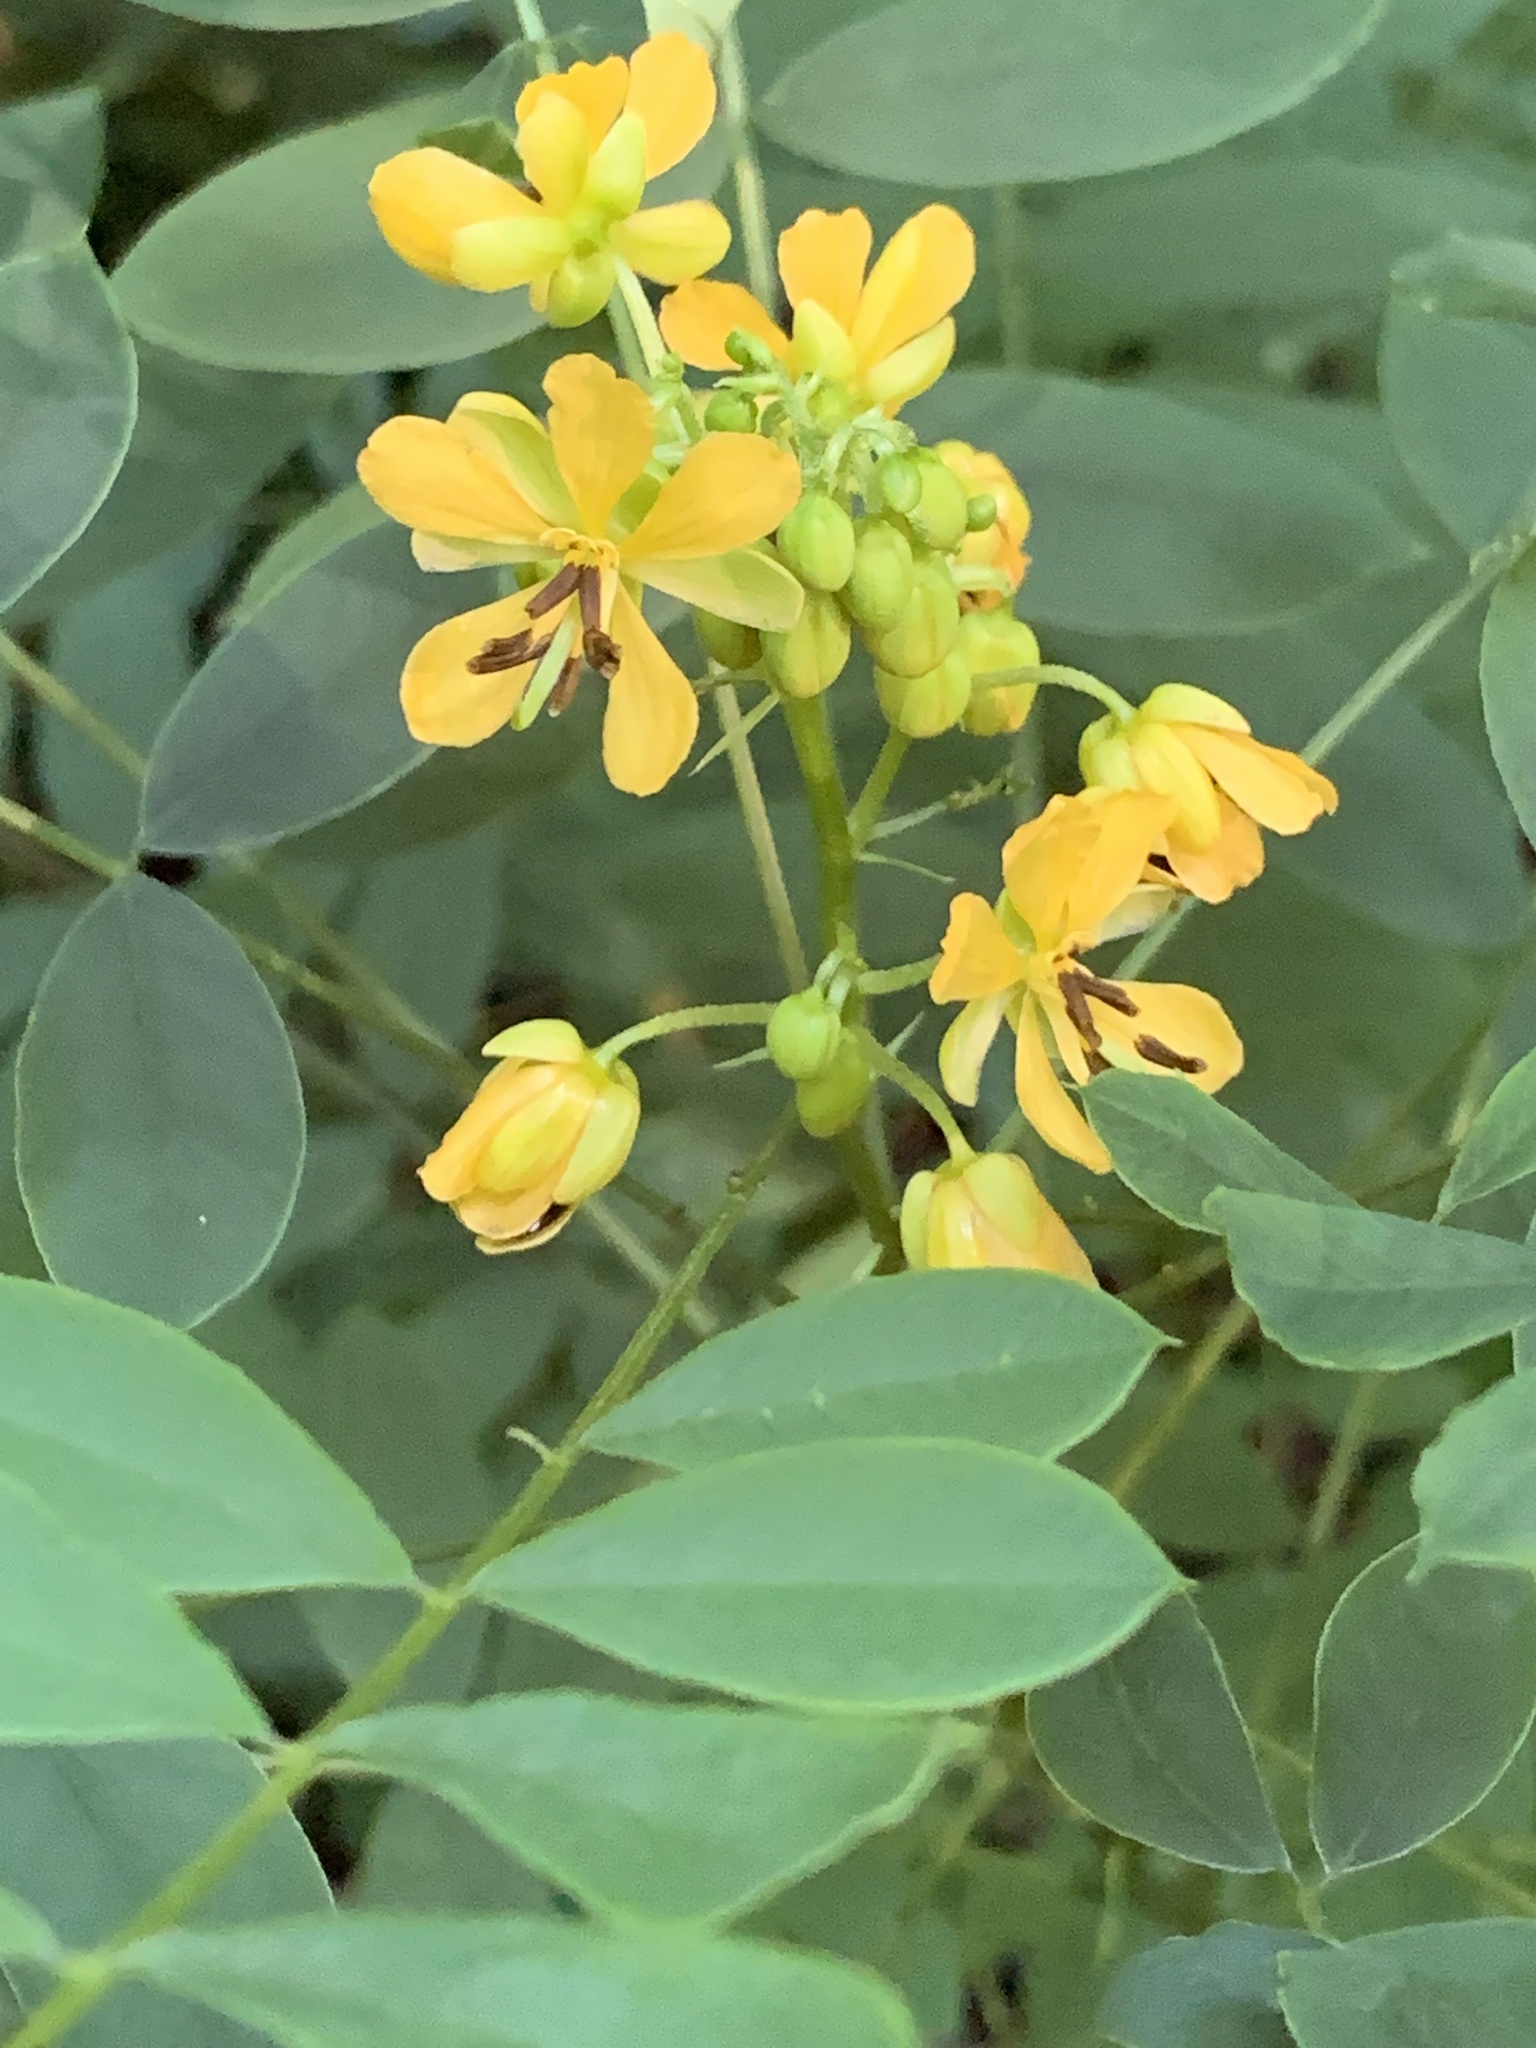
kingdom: Plantae
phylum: Tracheophyta
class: Magnoliopsida
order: Fabales
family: Fabaceae
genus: Senna
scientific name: Senna marilandica
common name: American senna
